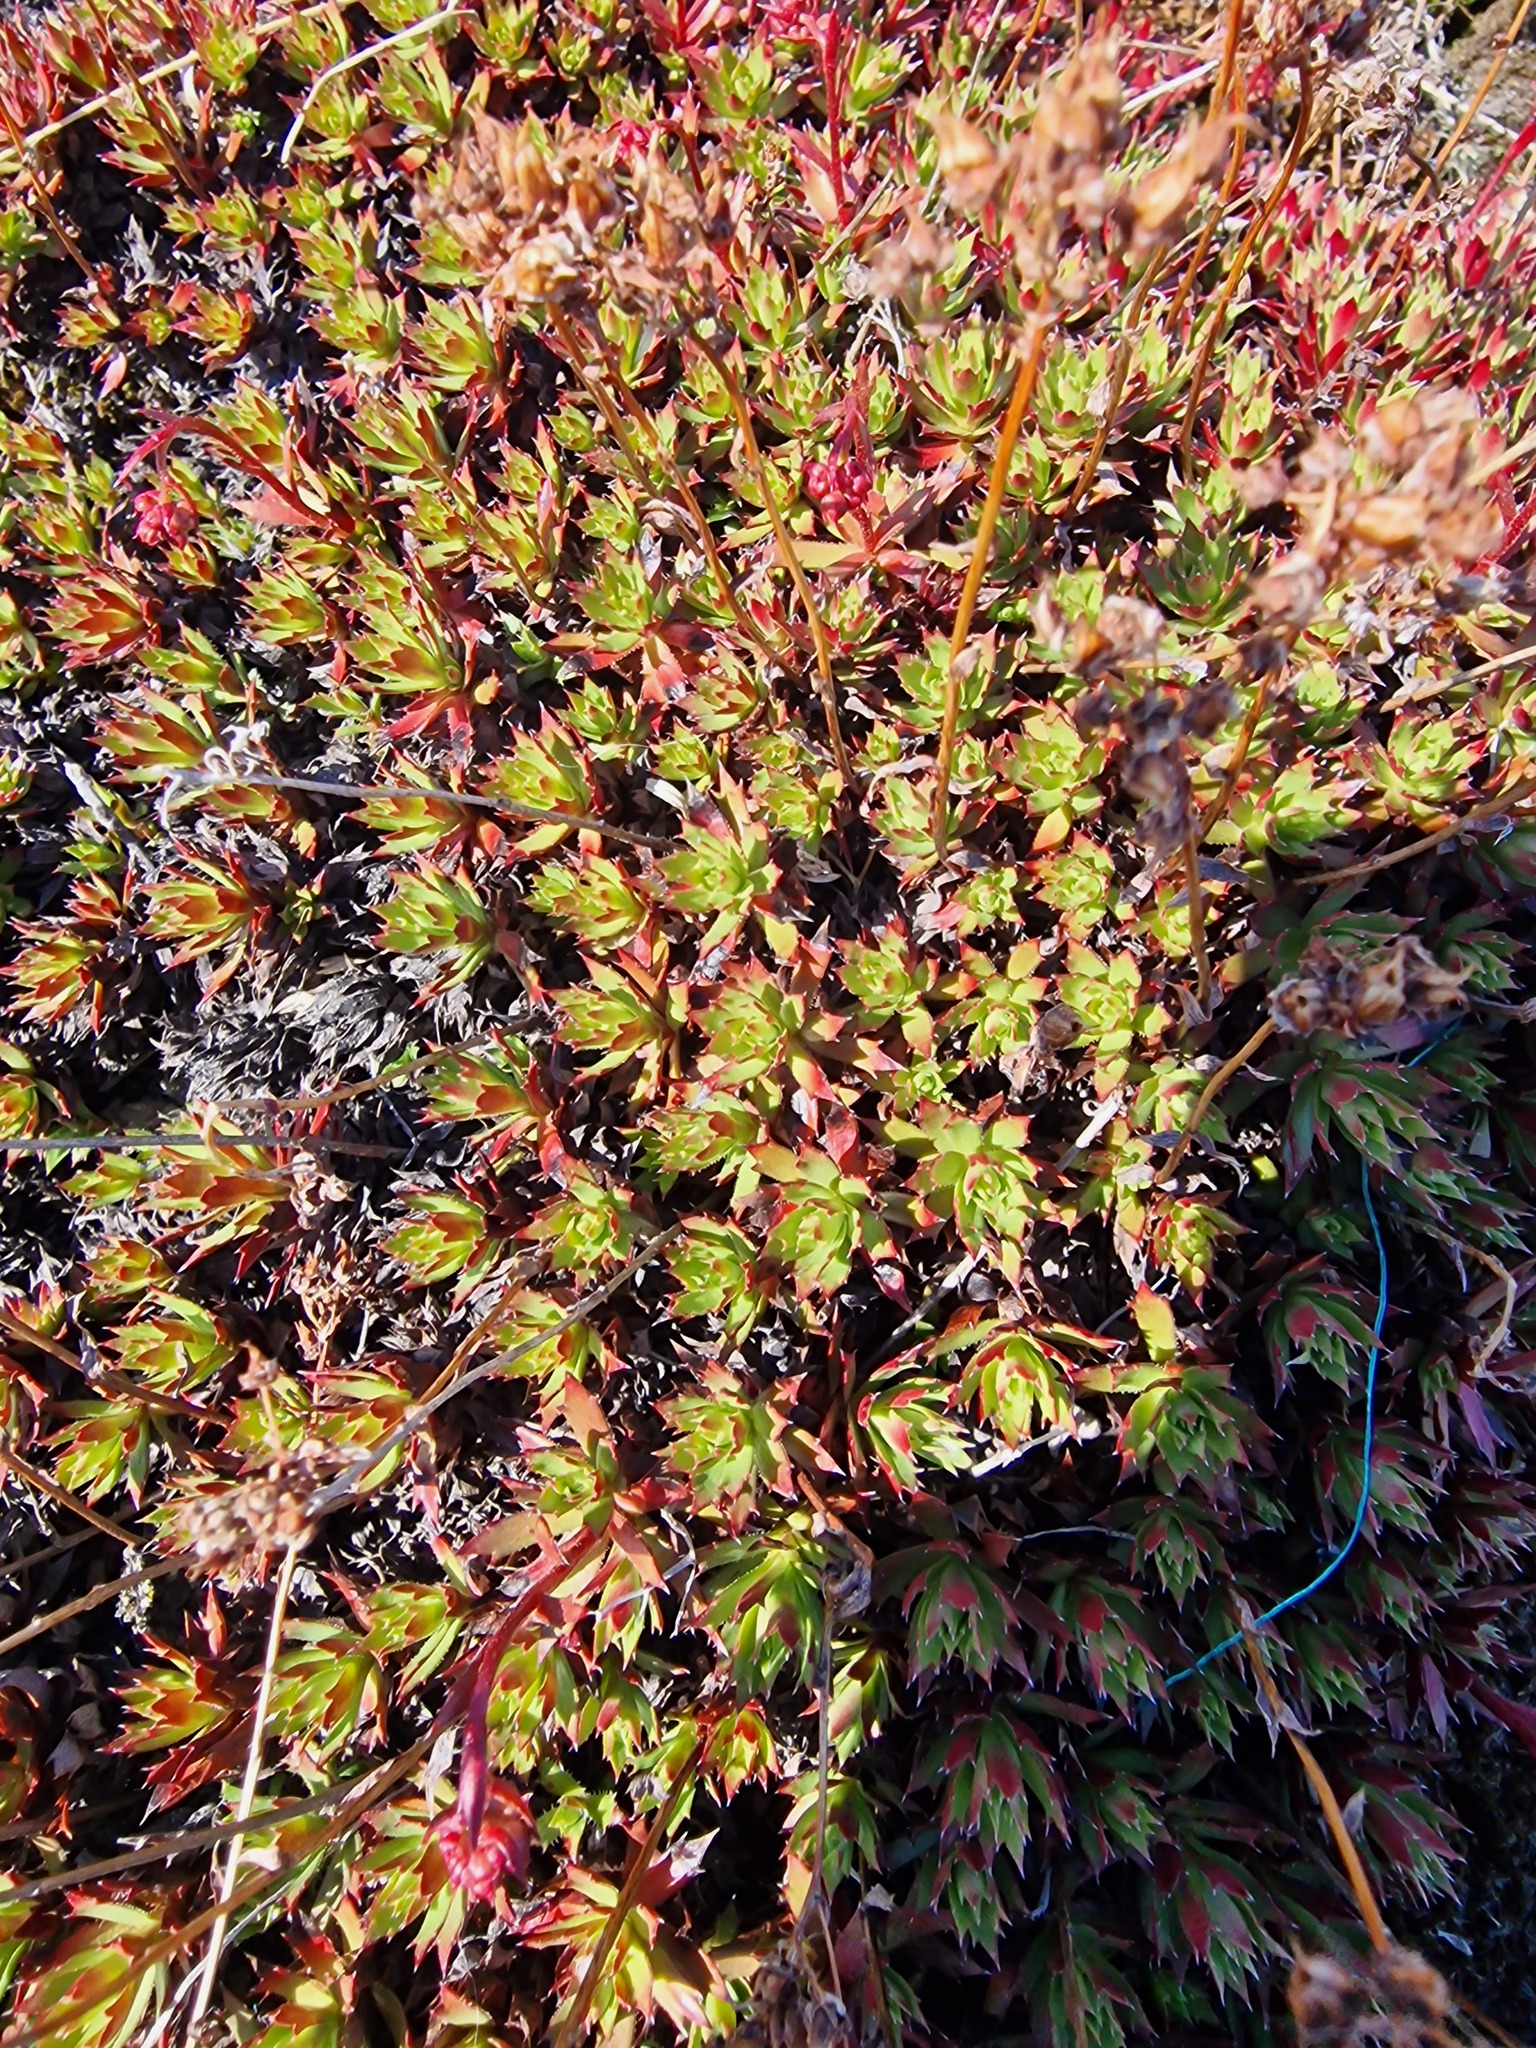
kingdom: Plantae
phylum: Tracheophyta
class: Magnoliopsida
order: Saxifragales
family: Saxifragaceae
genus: Saxifraga
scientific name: Saxifraga tricuspidata
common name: Prickly saxifrage
